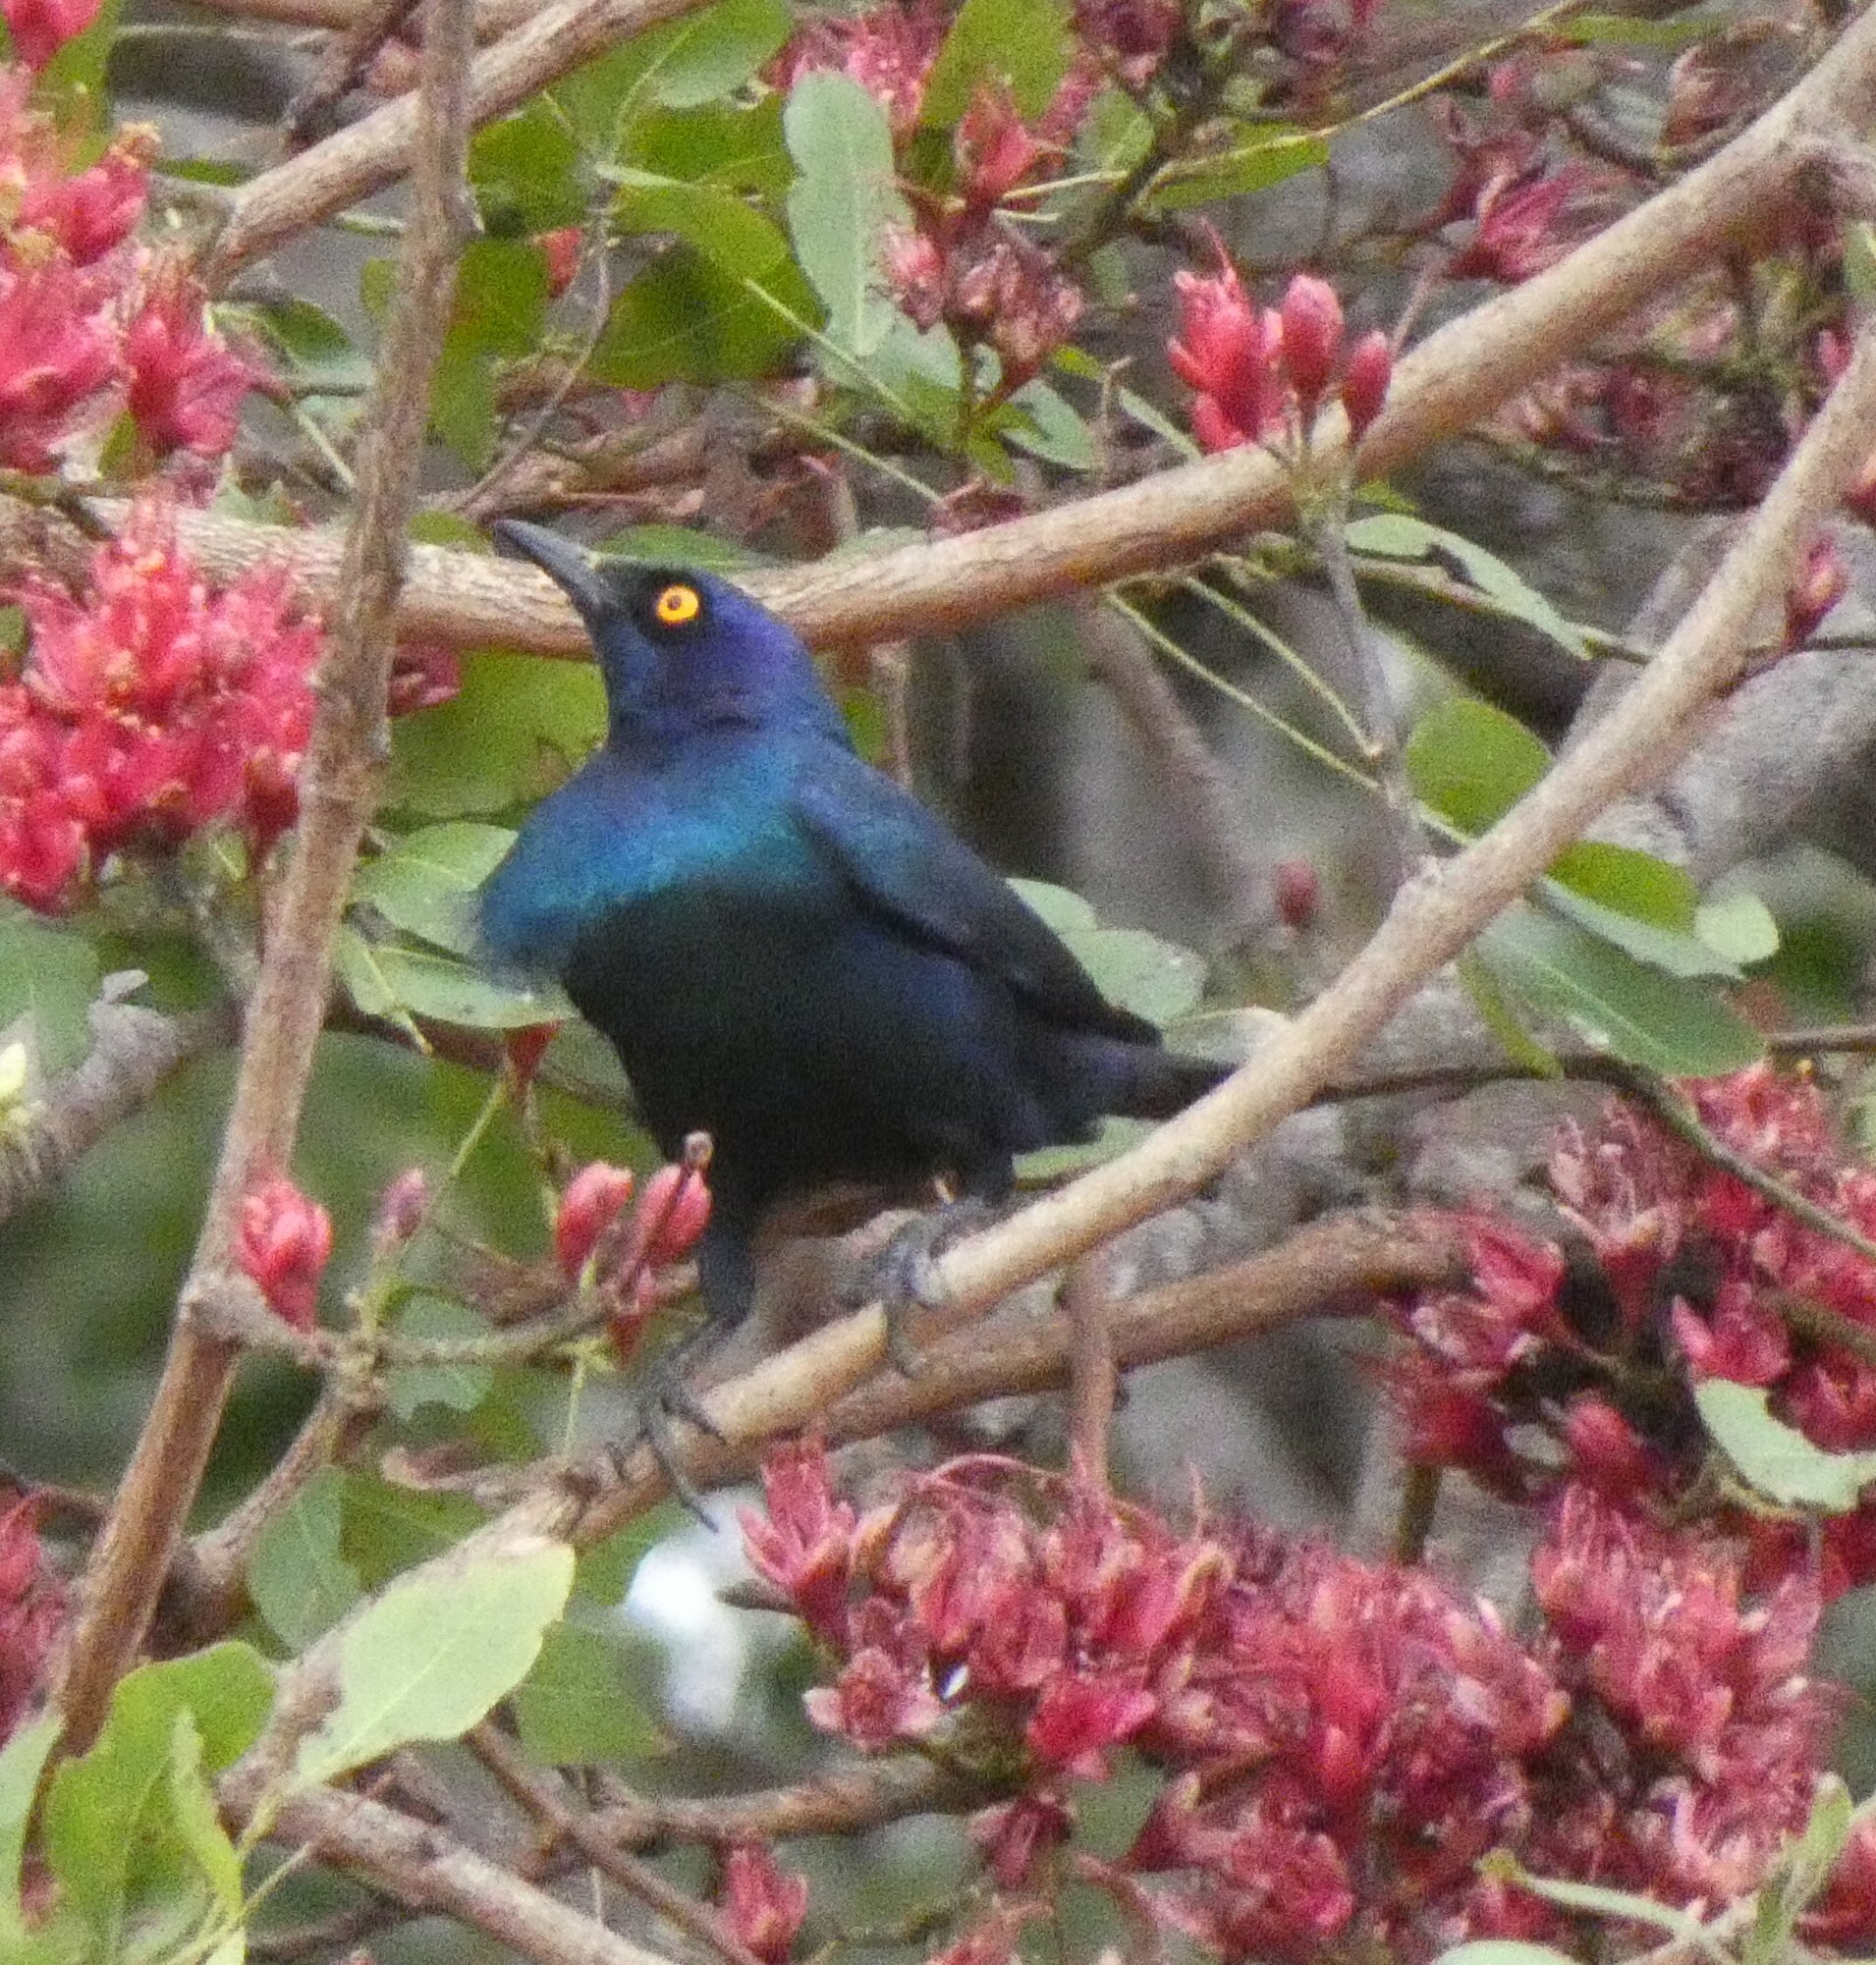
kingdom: Animalia
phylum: Chordata
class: Aves
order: Passeriformes
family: Sturnidae
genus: Lamprotornis
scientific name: Lamprotornis nitens
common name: Cape starling
